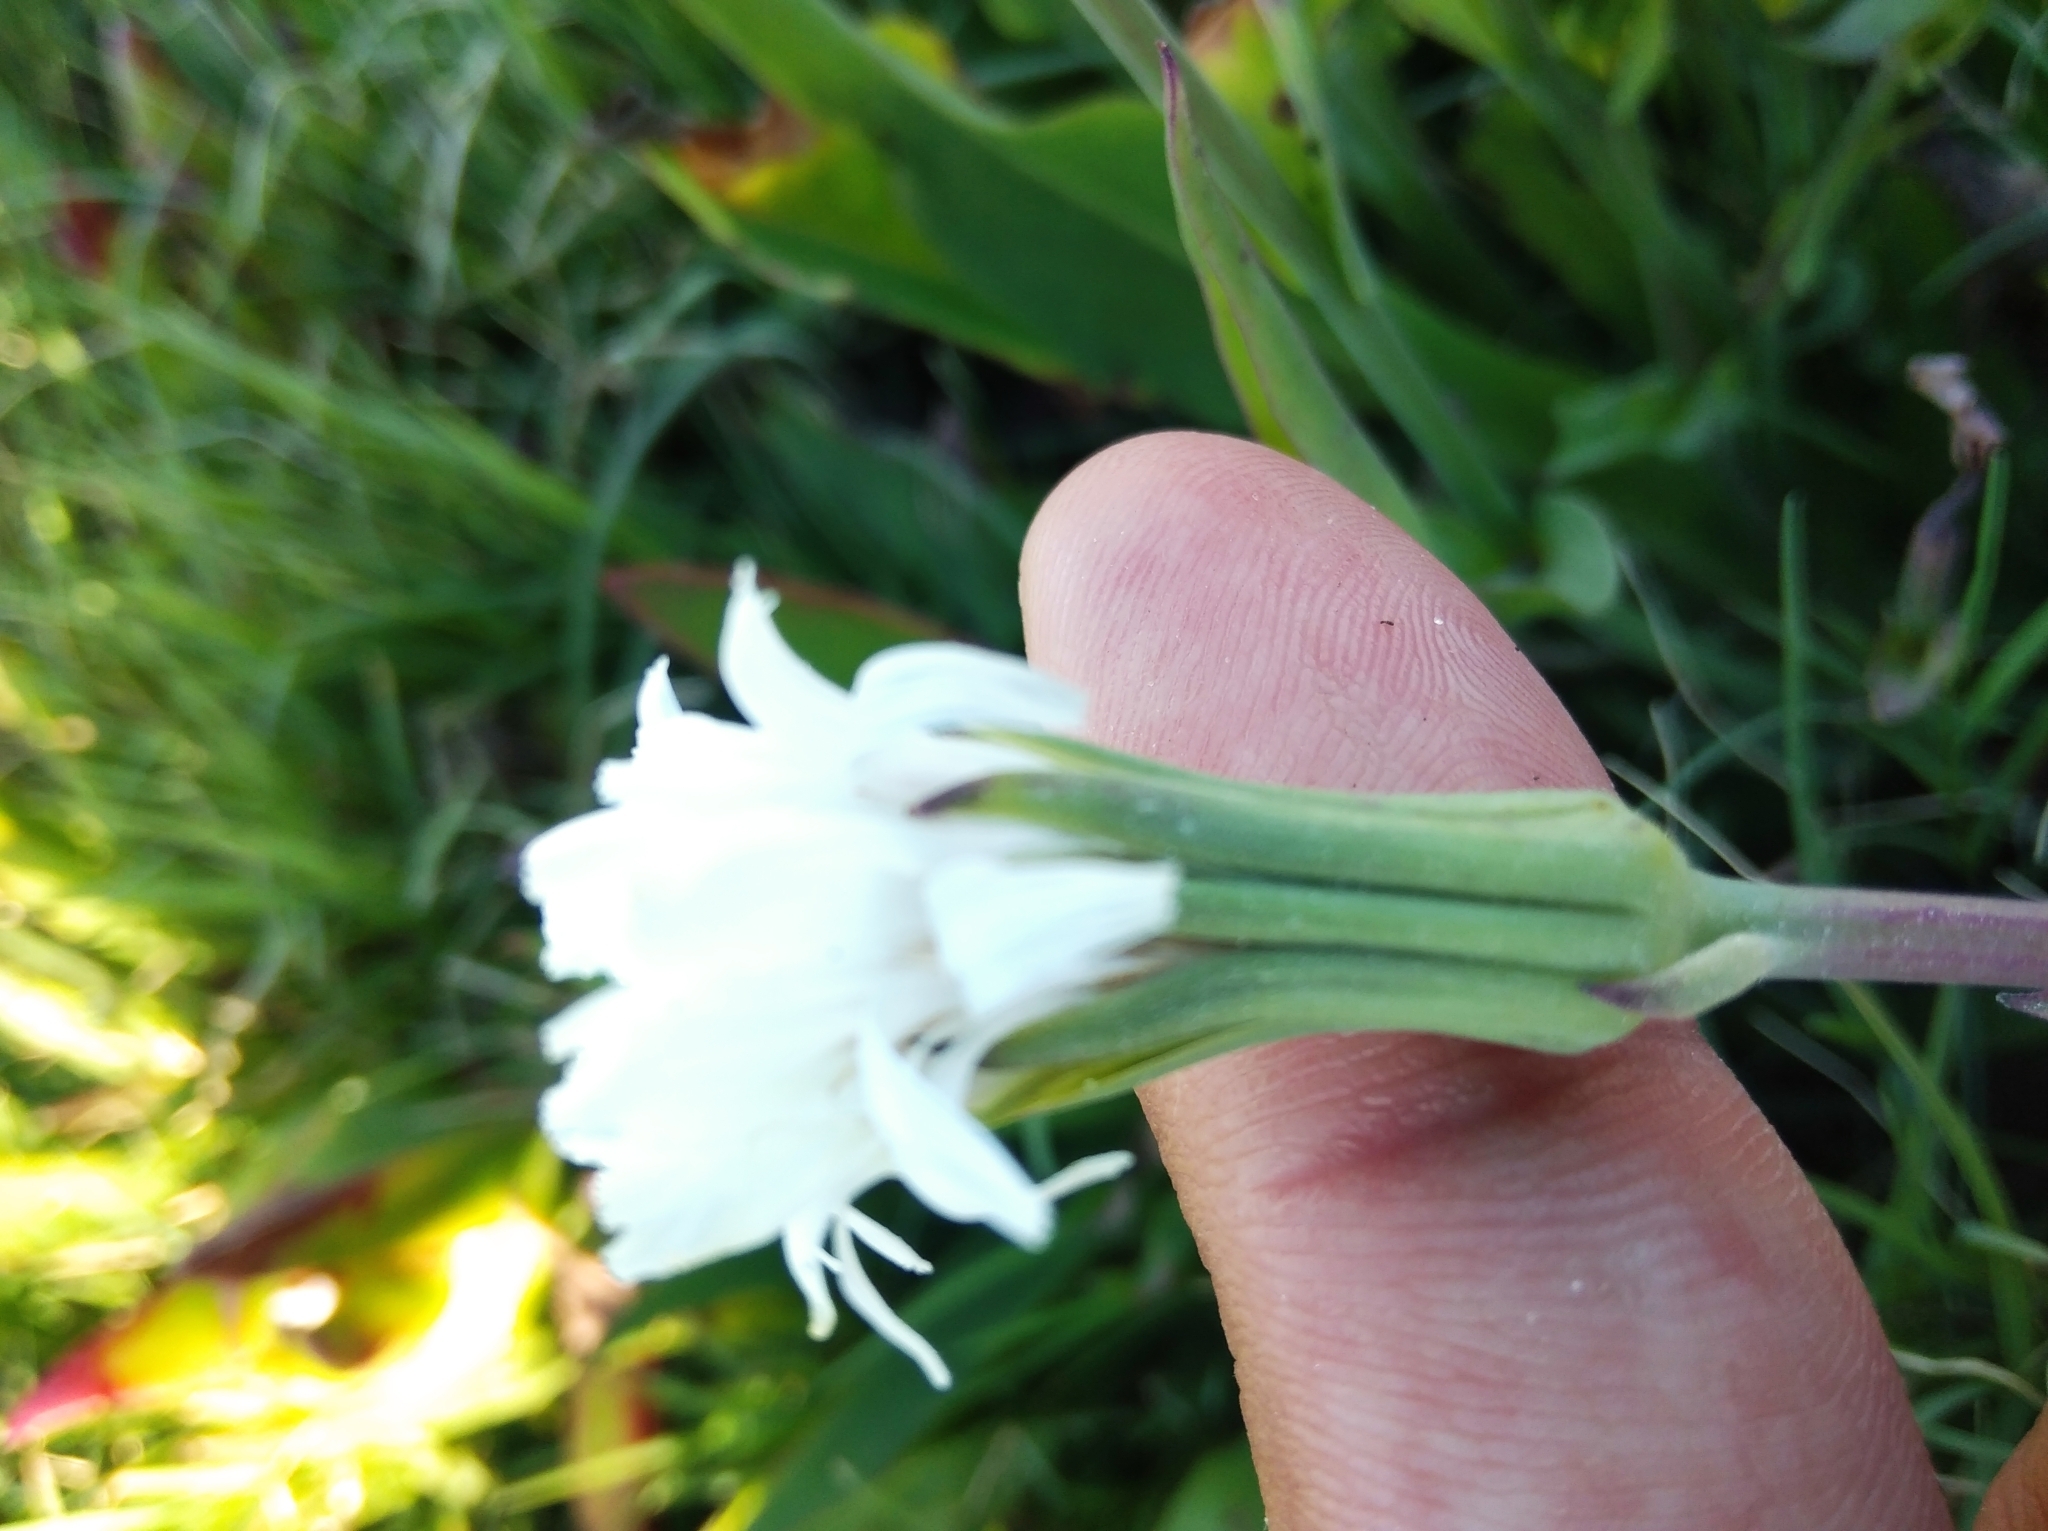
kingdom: Plantae
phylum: Tracheophyta
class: Magnoliopsida
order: Asterales
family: Asteraceae
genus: Picrosia
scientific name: Picrosia longifolia
